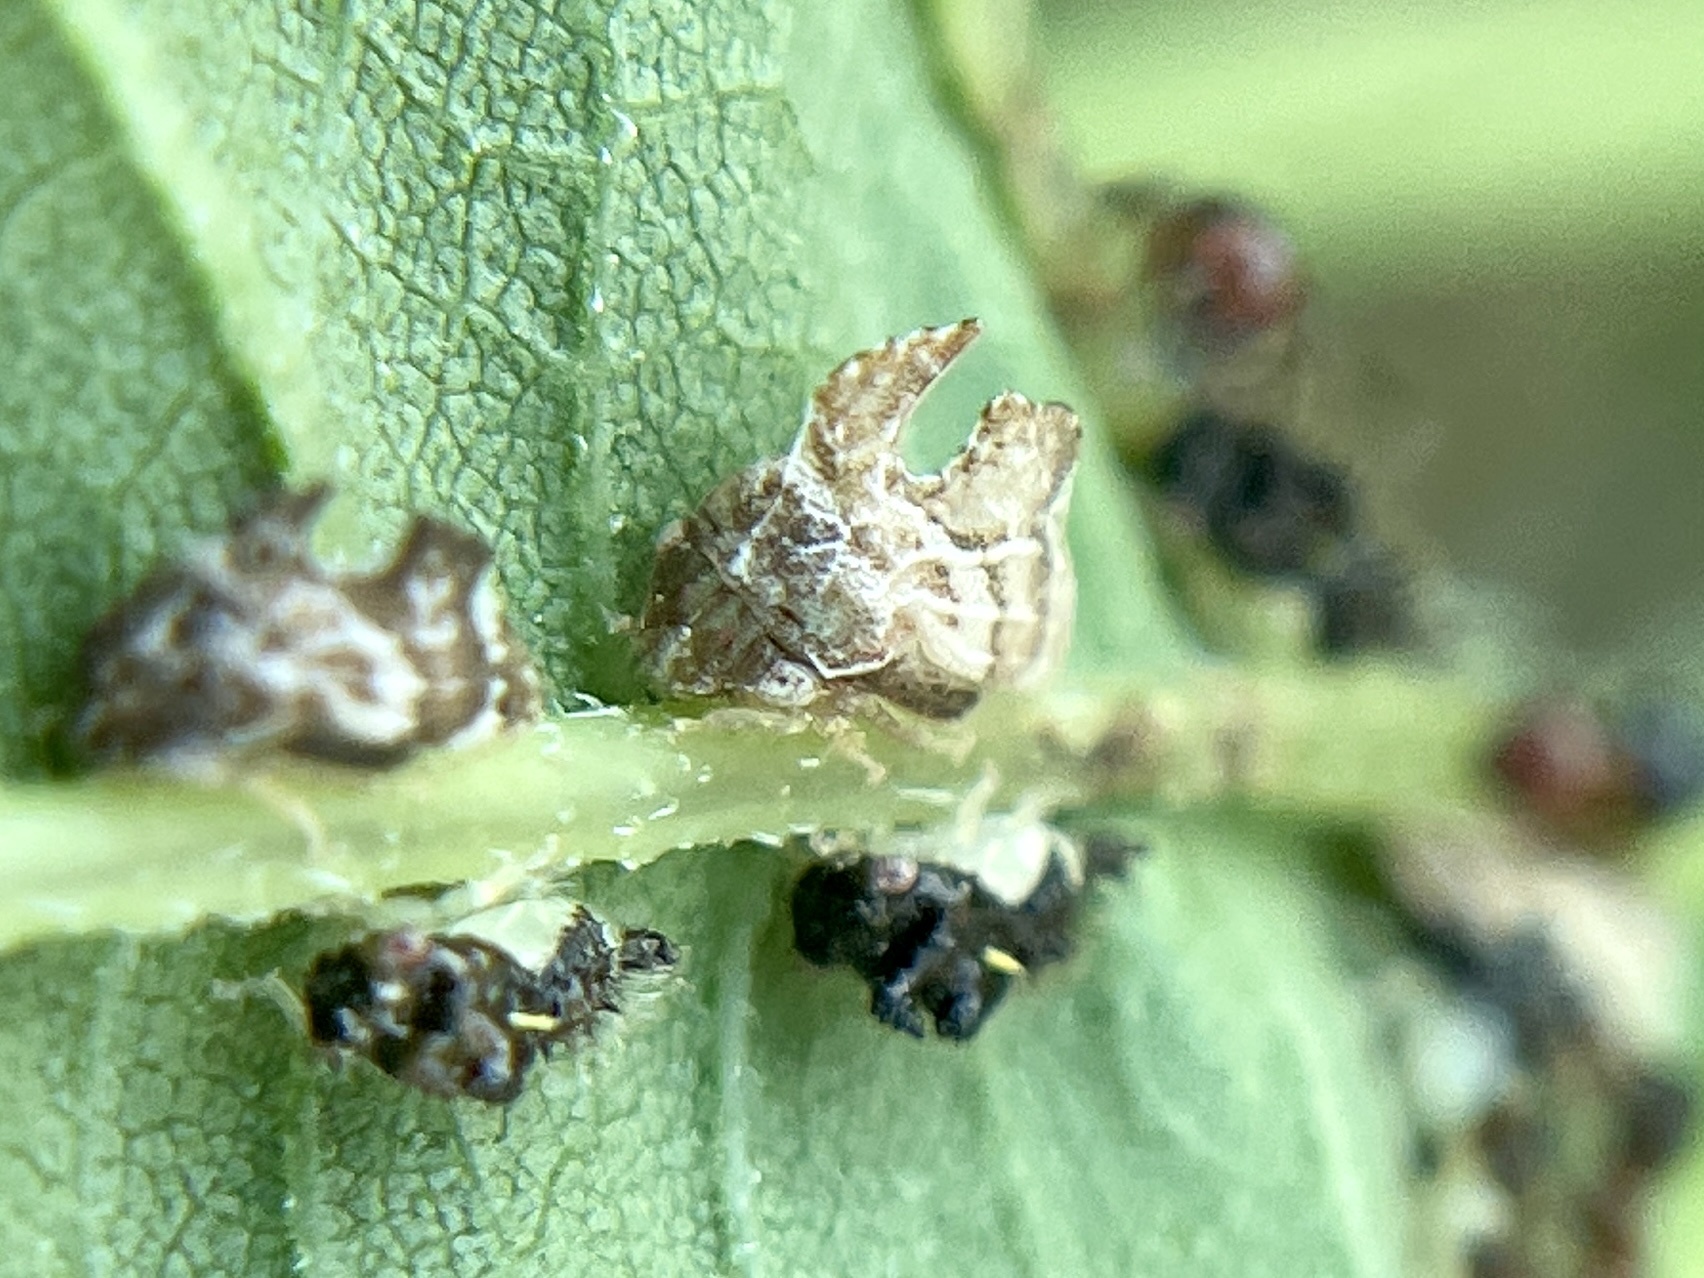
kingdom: Animalia
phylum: Arthropoda
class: Insecta
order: Hemiptera
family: Membracidae
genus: Entylia
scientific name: Entylia carinata
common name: Keeled treehopper
